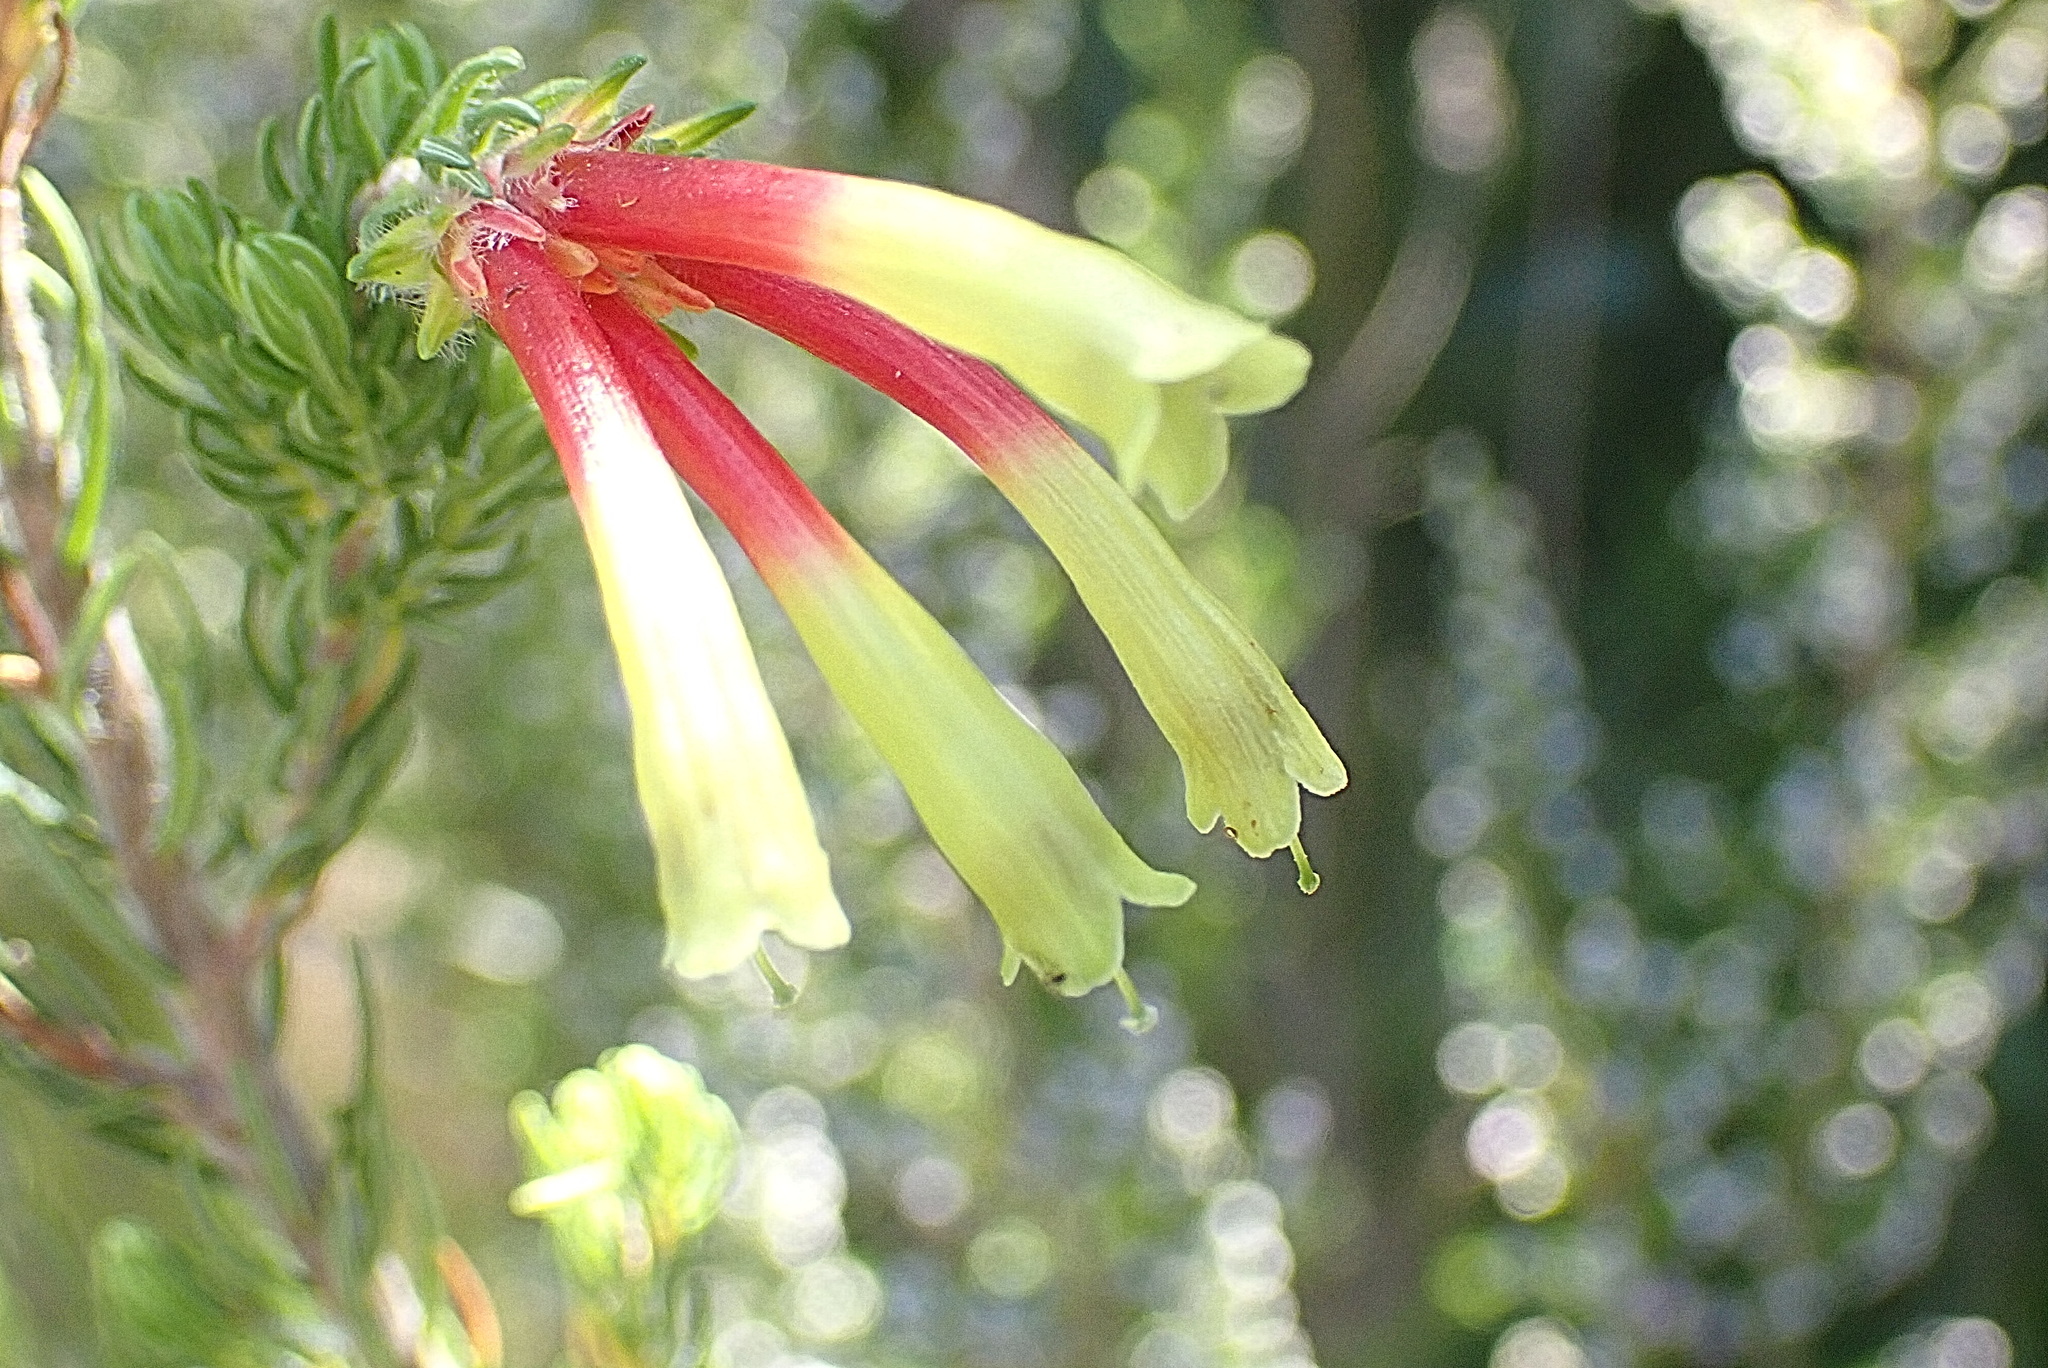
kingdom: Plantae
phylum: Tracheophyta
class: Magnoliopsida
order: Ericales
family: Ericaceae
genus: Erica
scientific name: Erica unicolor
